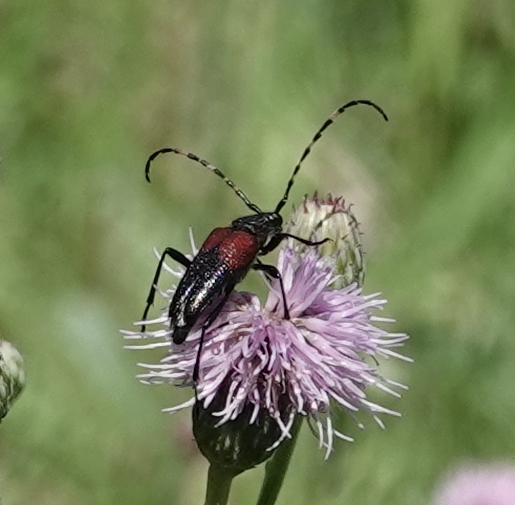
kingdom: Animalia
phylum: Arthropoda
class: Insecta
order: Coleoptera
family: Cerambycidae
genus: Stictoleptura
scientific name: Stictoleptura canadensis
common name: Red-shouldered pine borer
